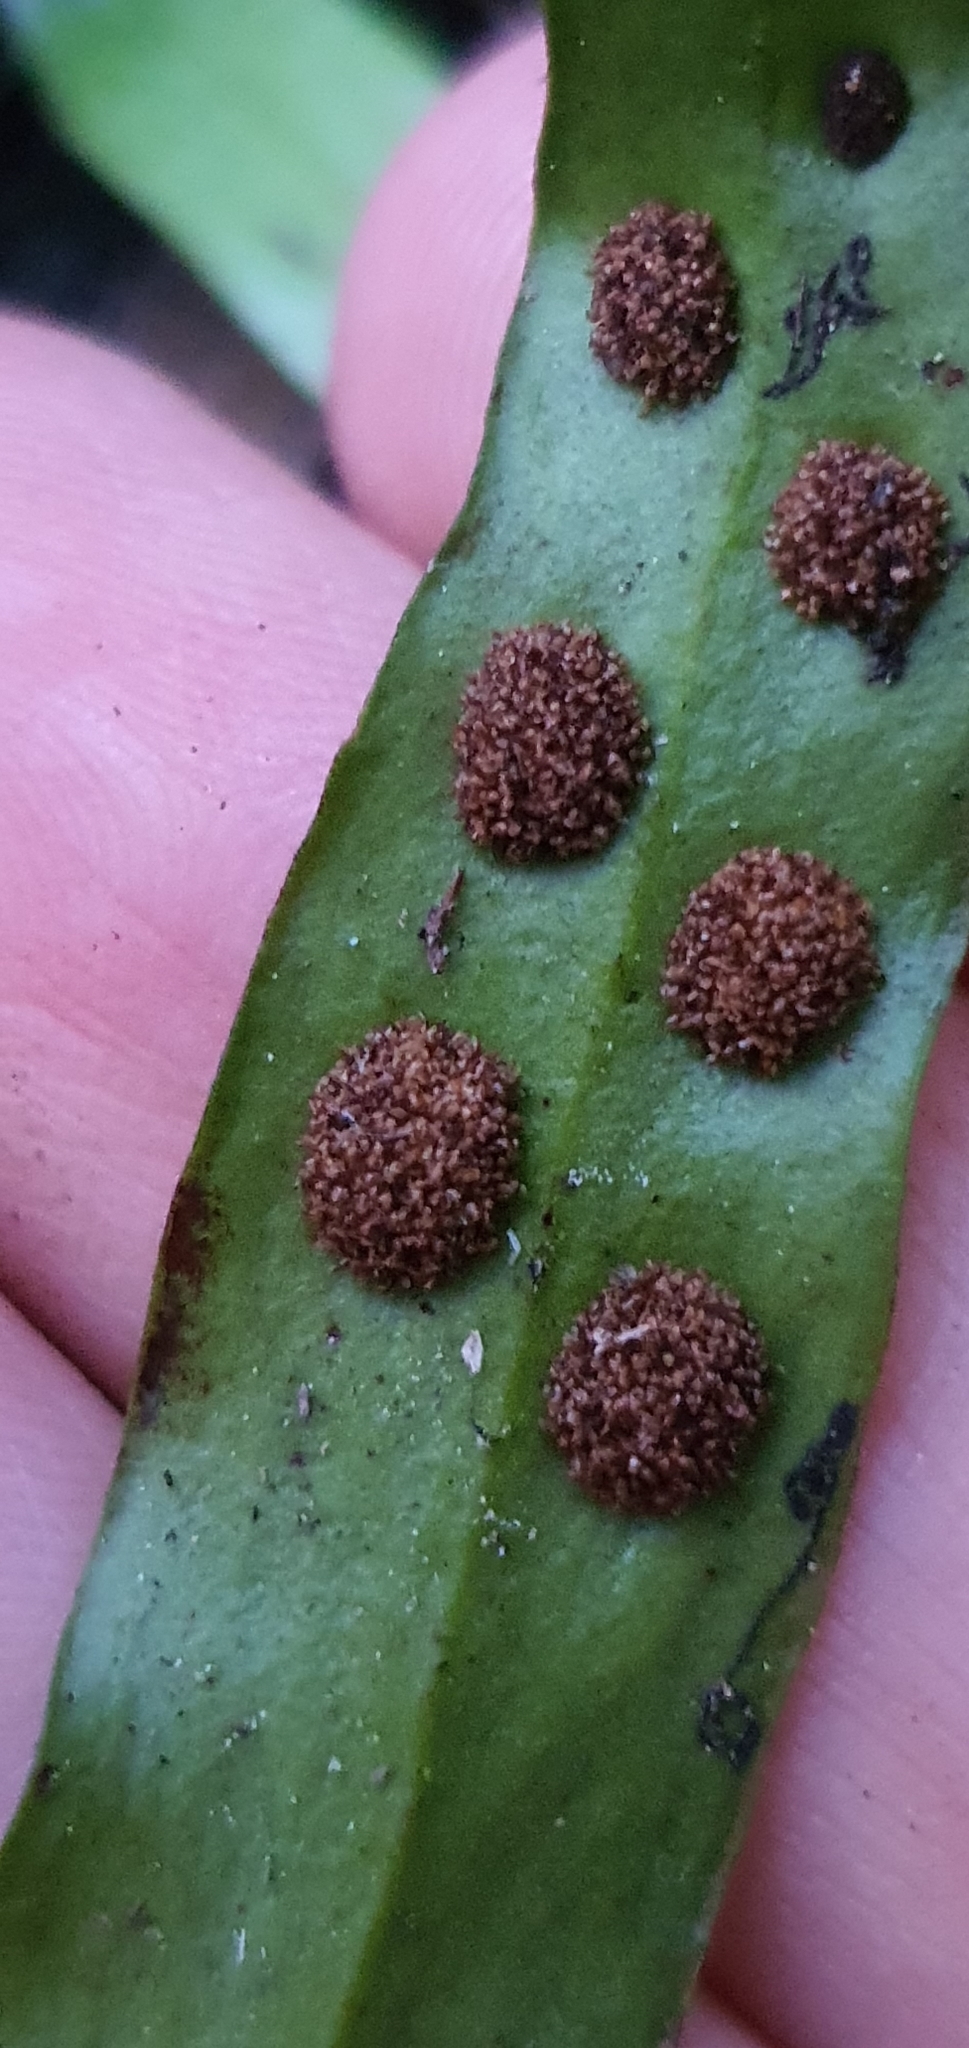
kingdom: Plantae
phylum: Tracheophyta
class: Polypodiopsida
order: Polypodiales
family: Polypodiaceae
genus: Loxogramme
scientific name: Loxogramme dictyopteris
